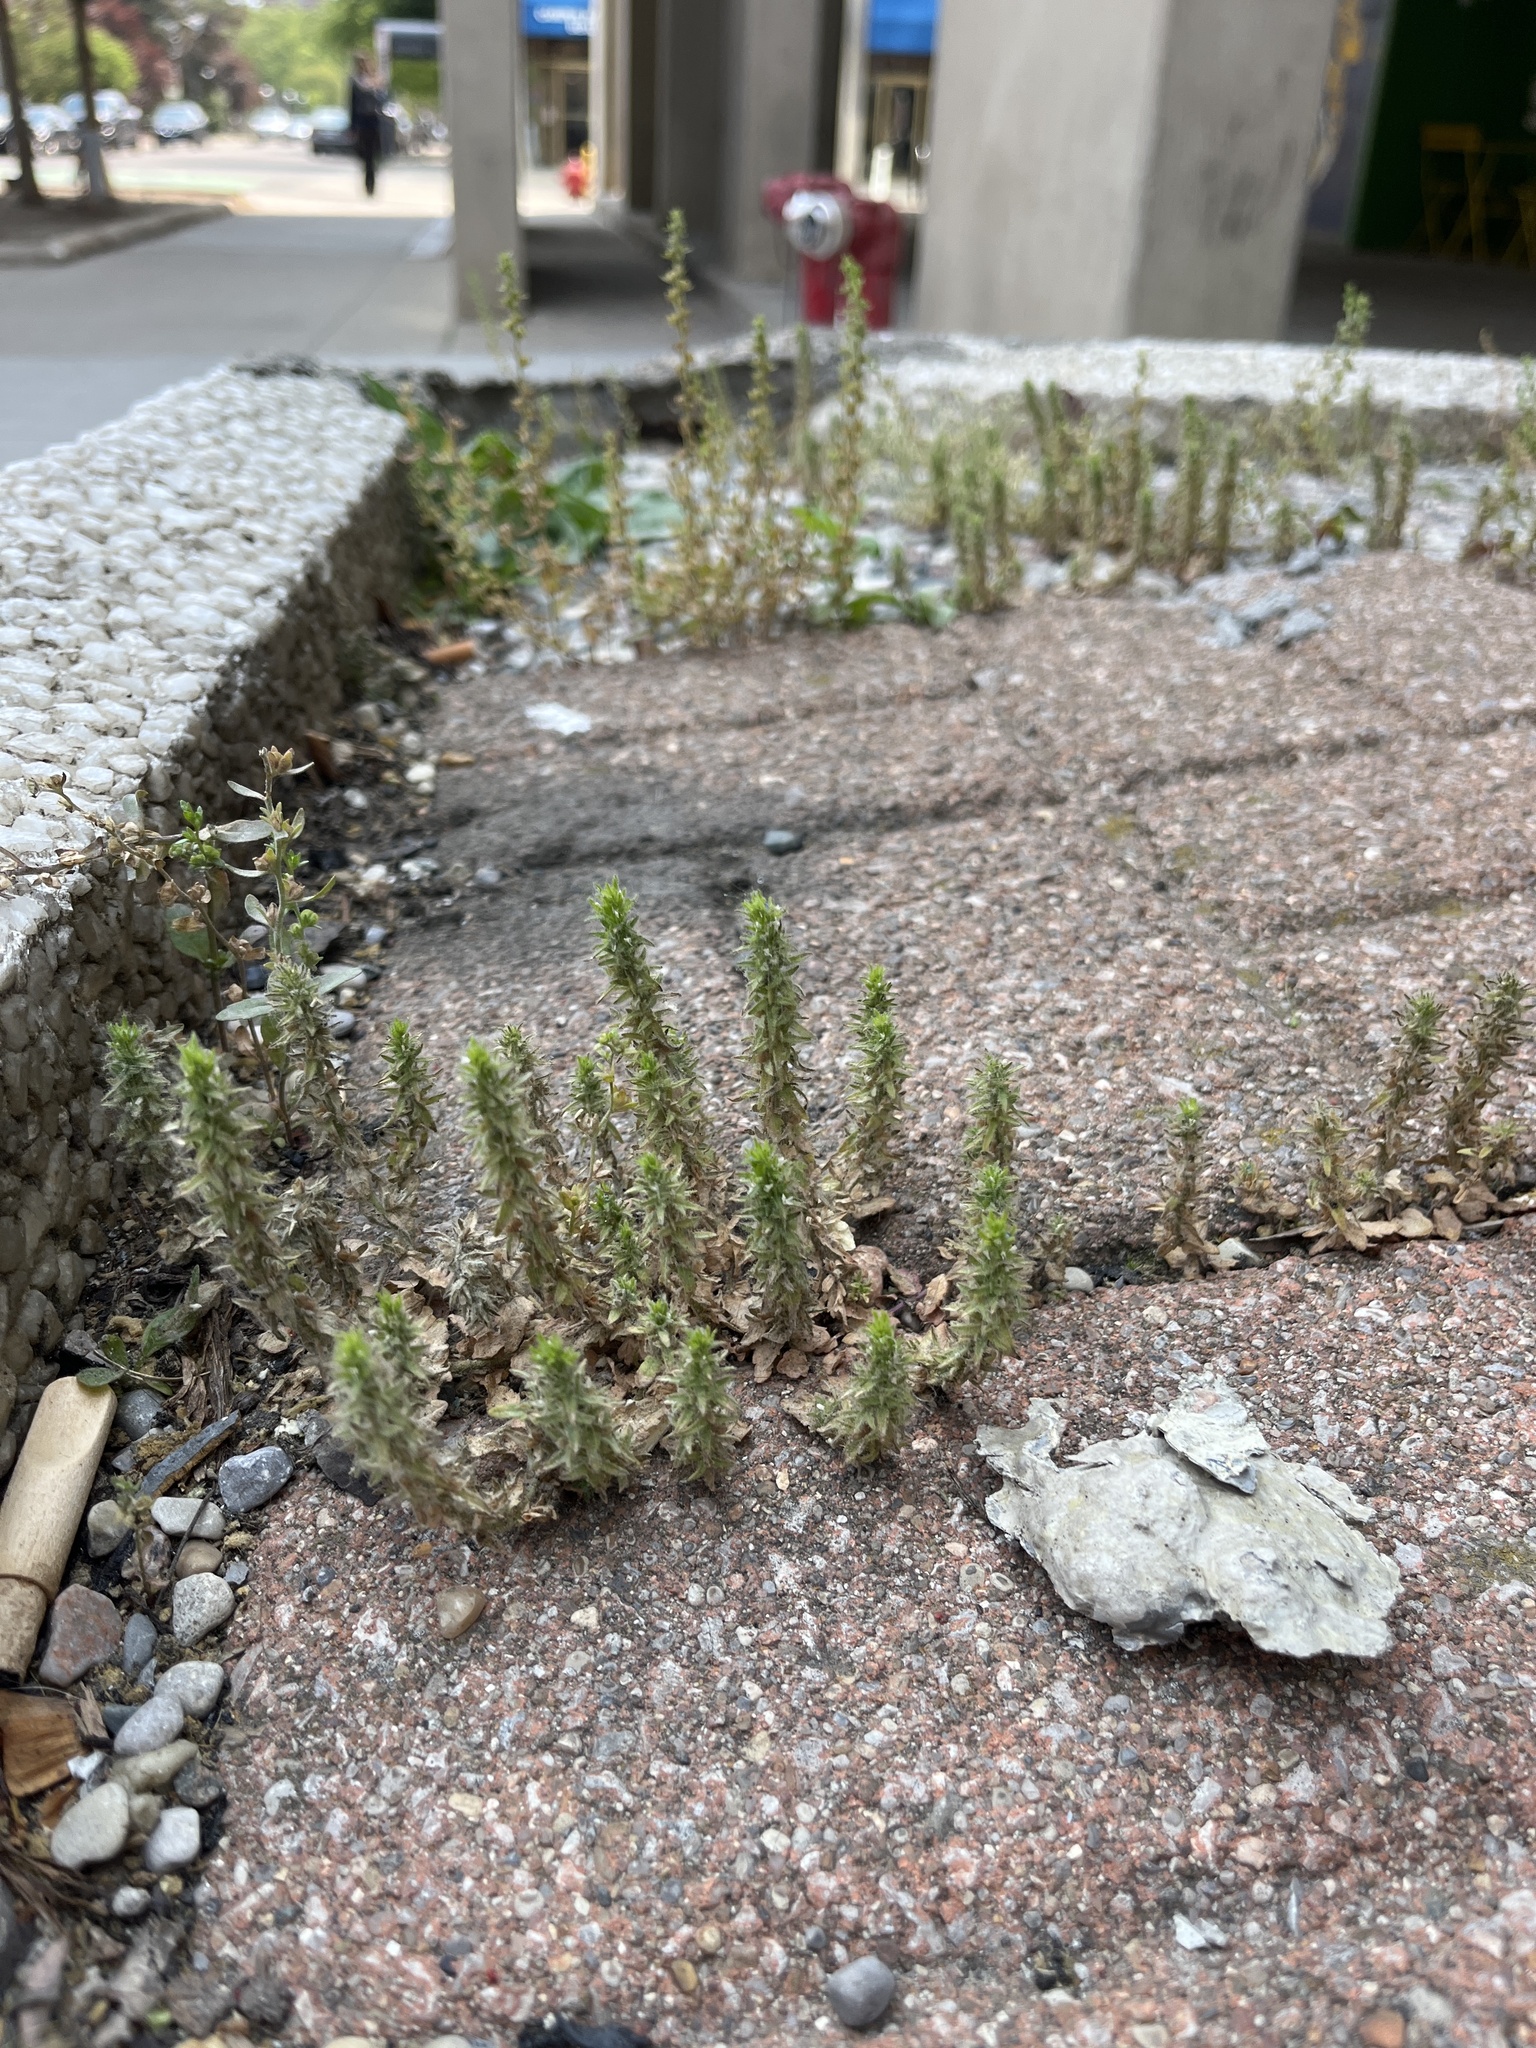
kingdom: Plantae
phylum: Tracheophyta
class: Magnoliopsida
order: Lamiales
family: Plantaginaceae
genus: Veronica
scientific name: Veronica arvensis
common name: Corn speedwell
